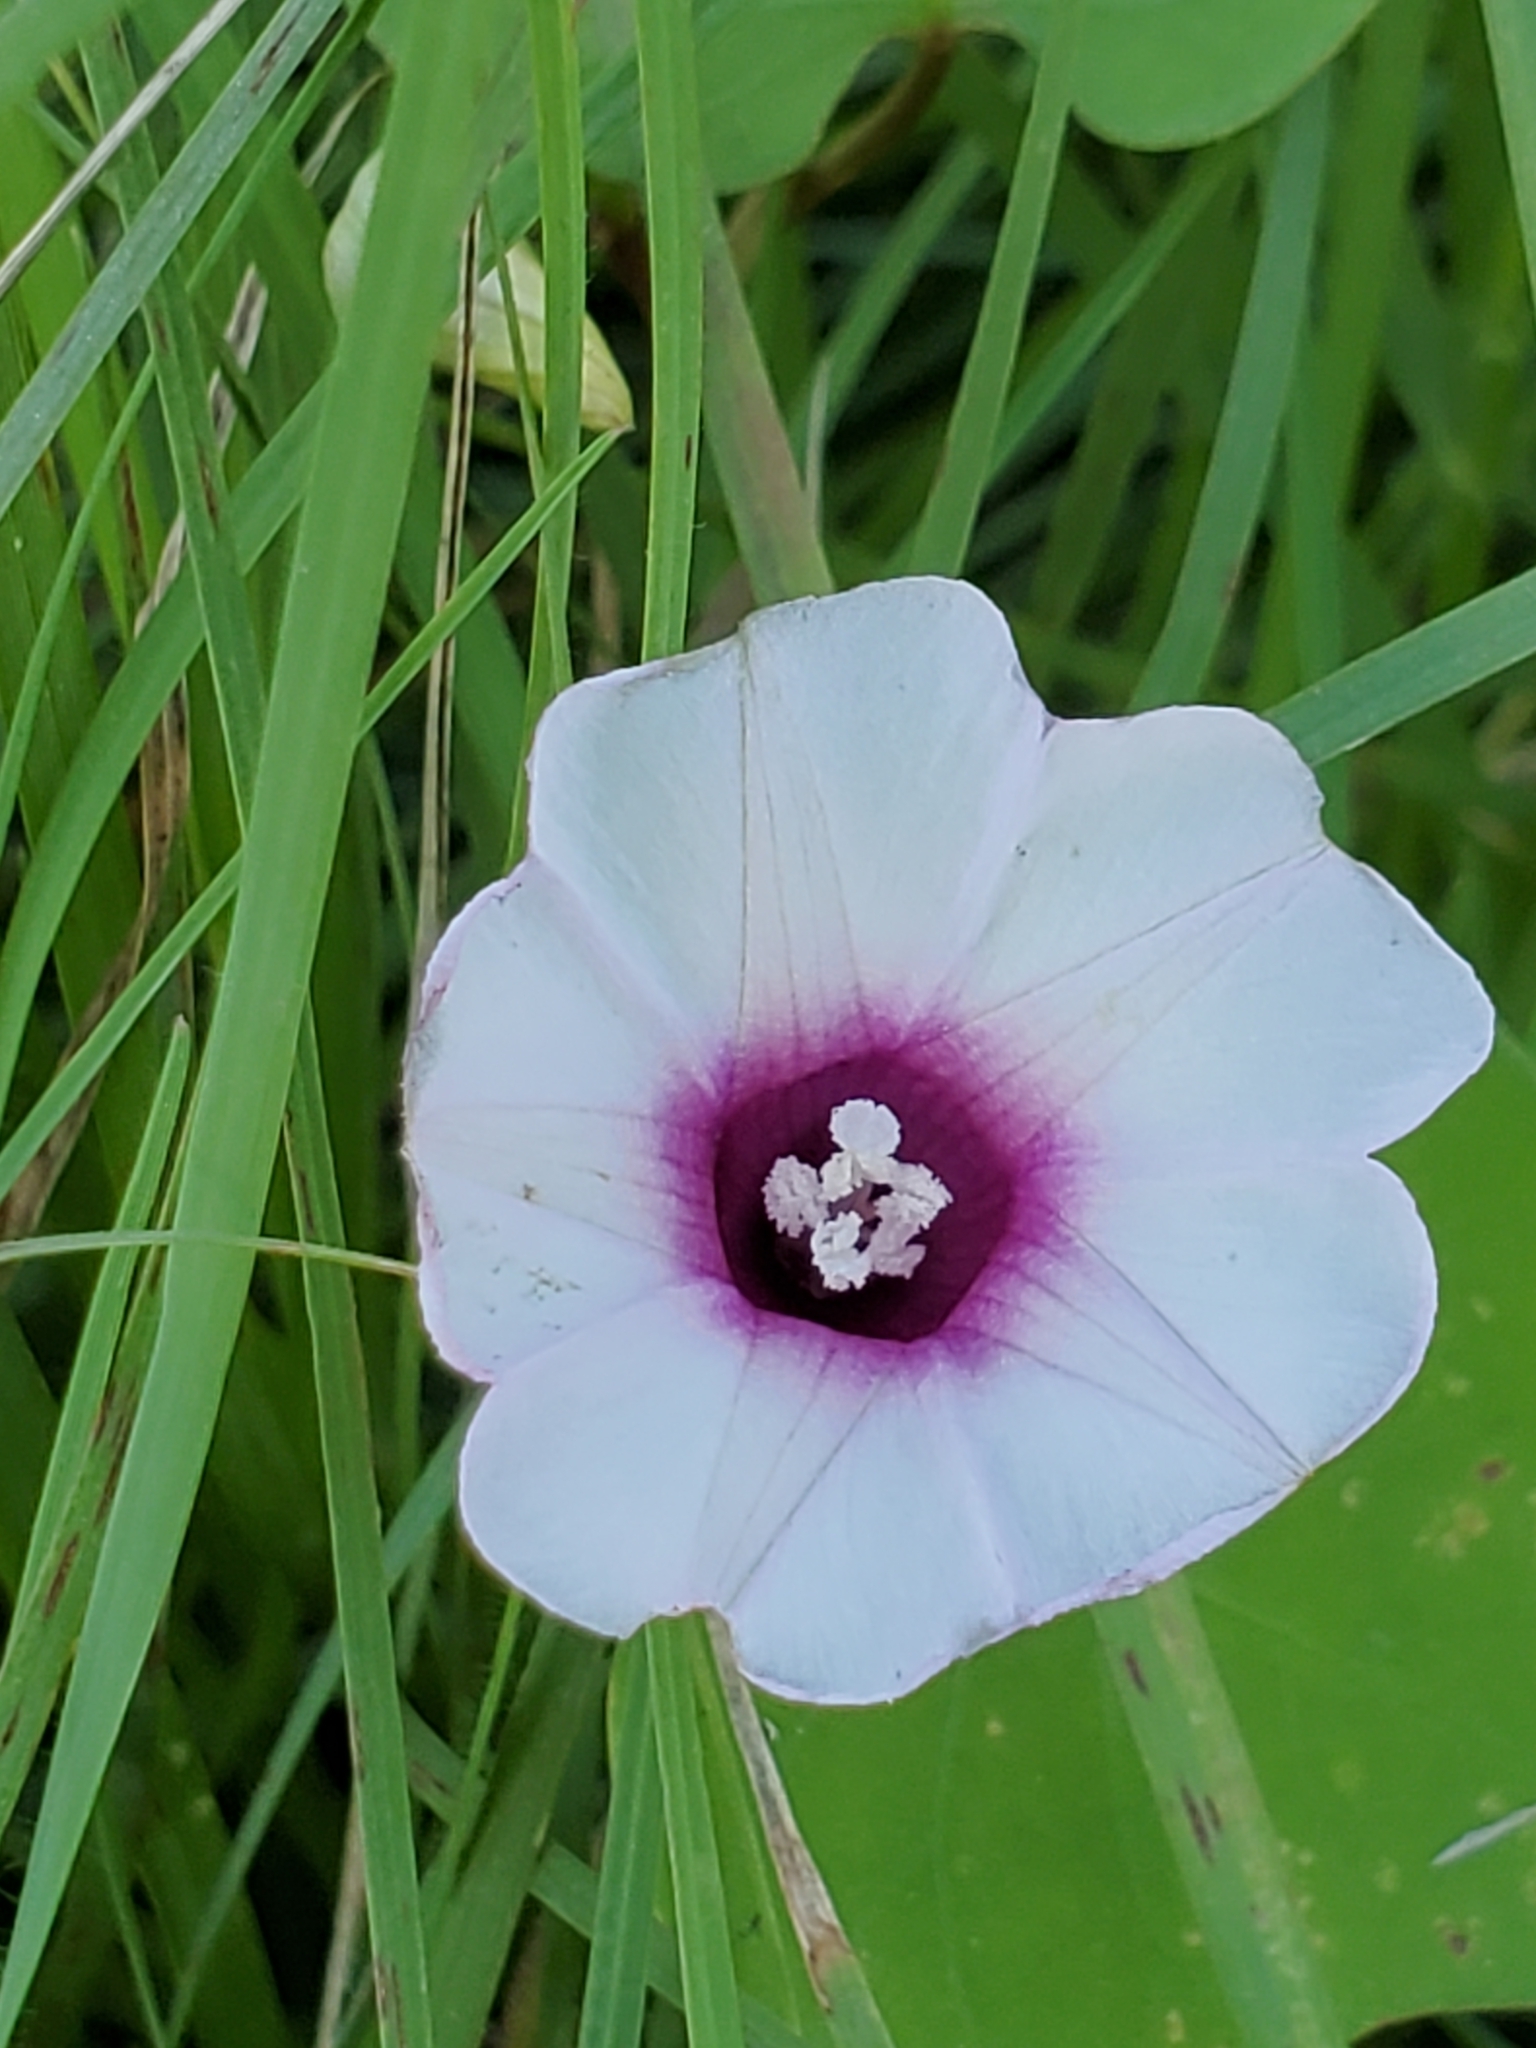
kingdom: Plantae
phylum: Tracheophyta
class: Magnoliopsida
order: Solanales
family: Convolvulaceae
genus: Ipomoea
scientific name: Ipomoea amnicola
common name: Redcenter morning-glory
